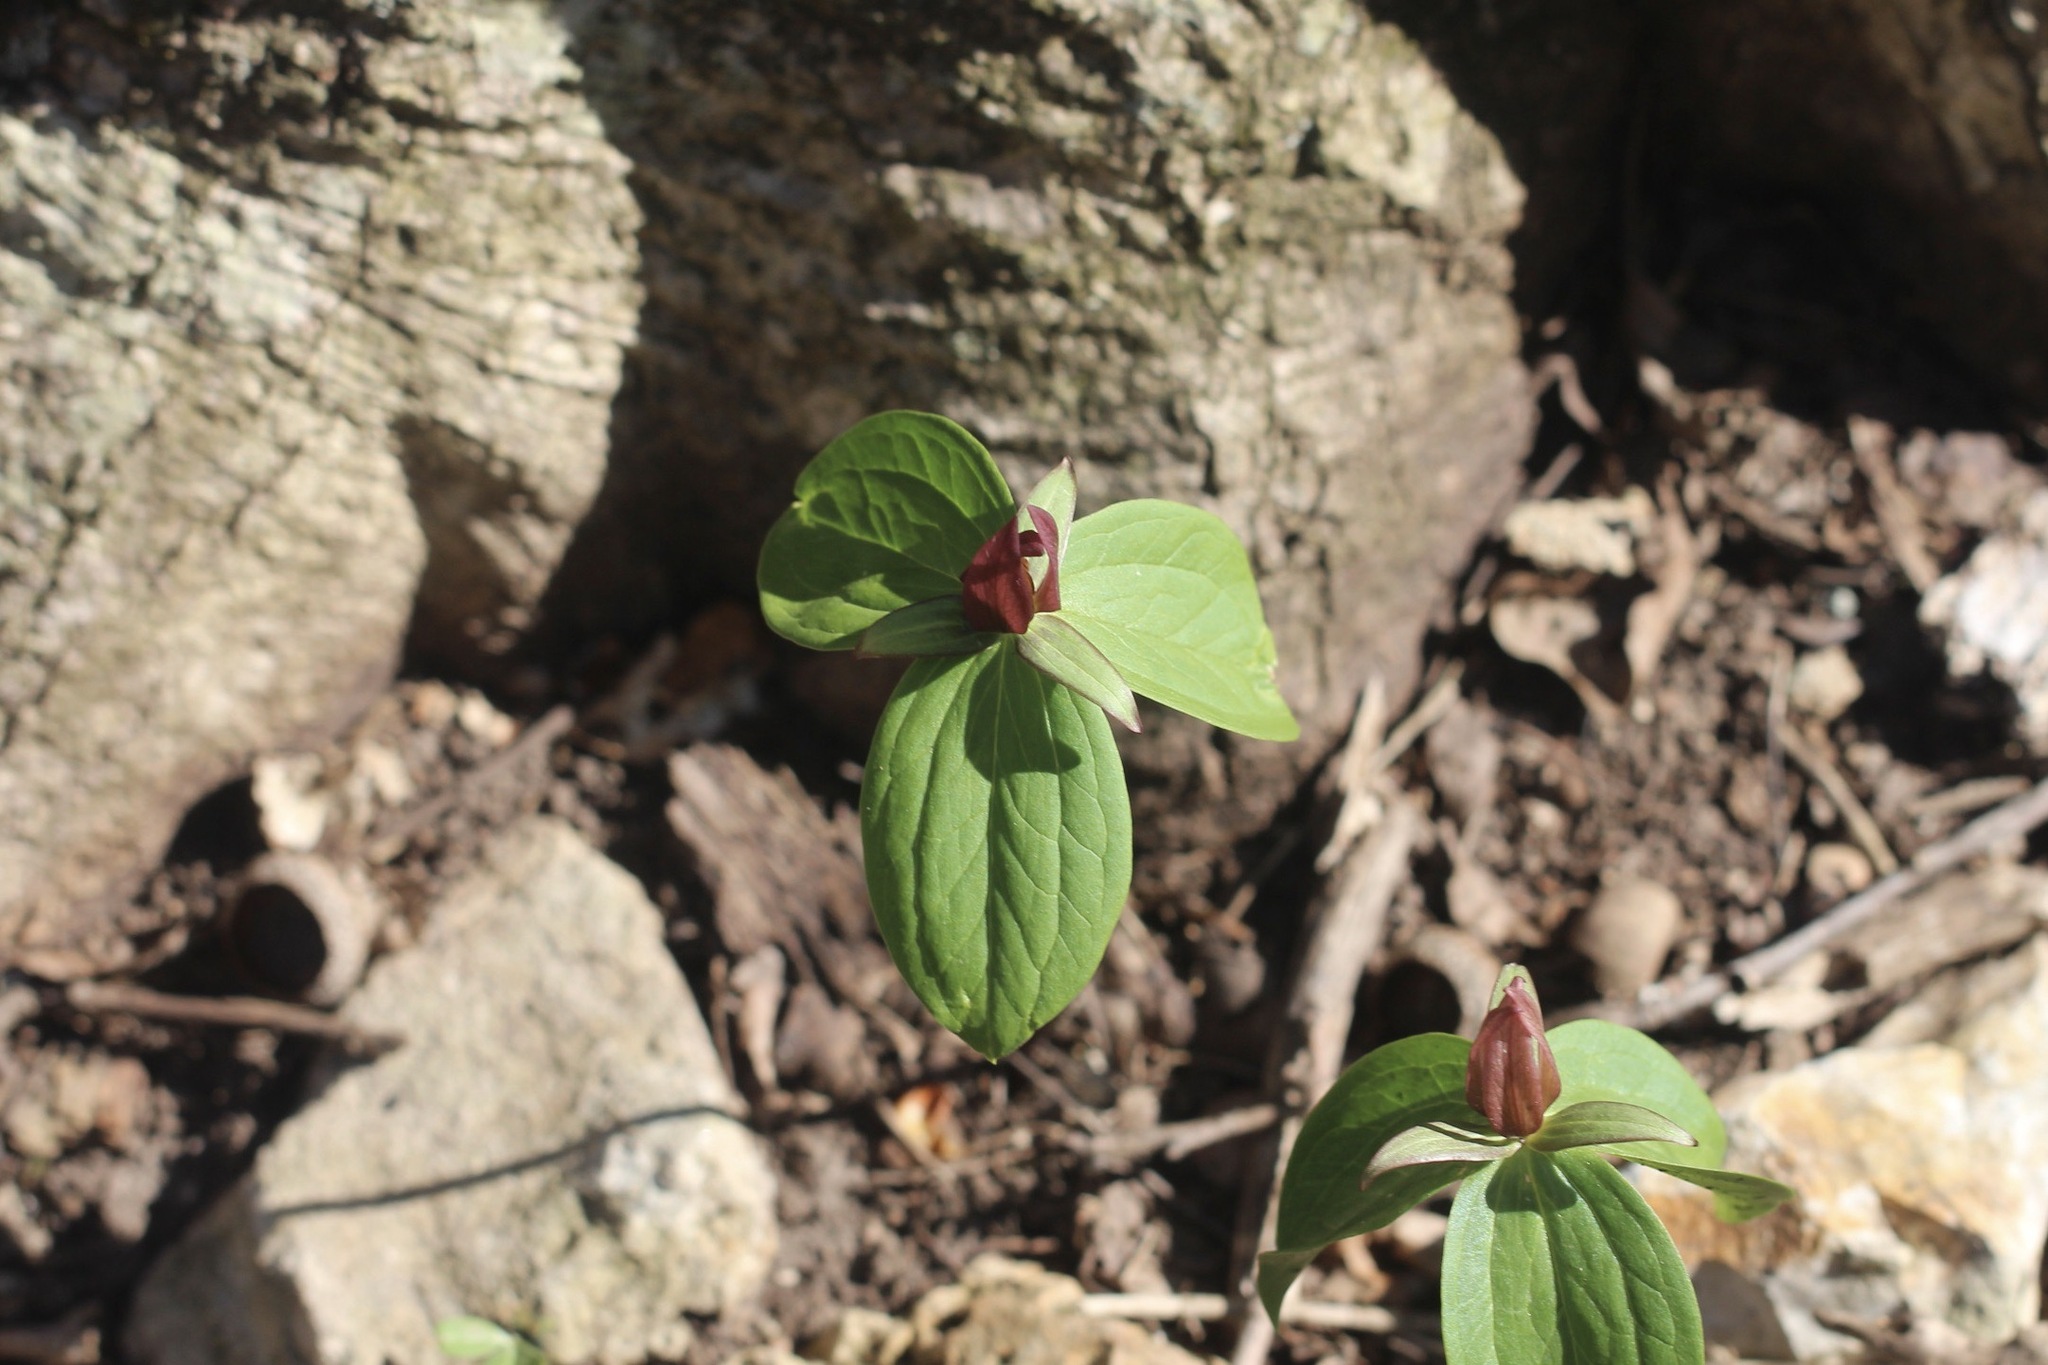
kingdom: Plantae
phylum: Tracheophyta
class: Liliopsida
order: Liliales
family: Melanthiaceae
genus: Trillium
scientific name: Trillium sessile
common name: Sessile trillium
